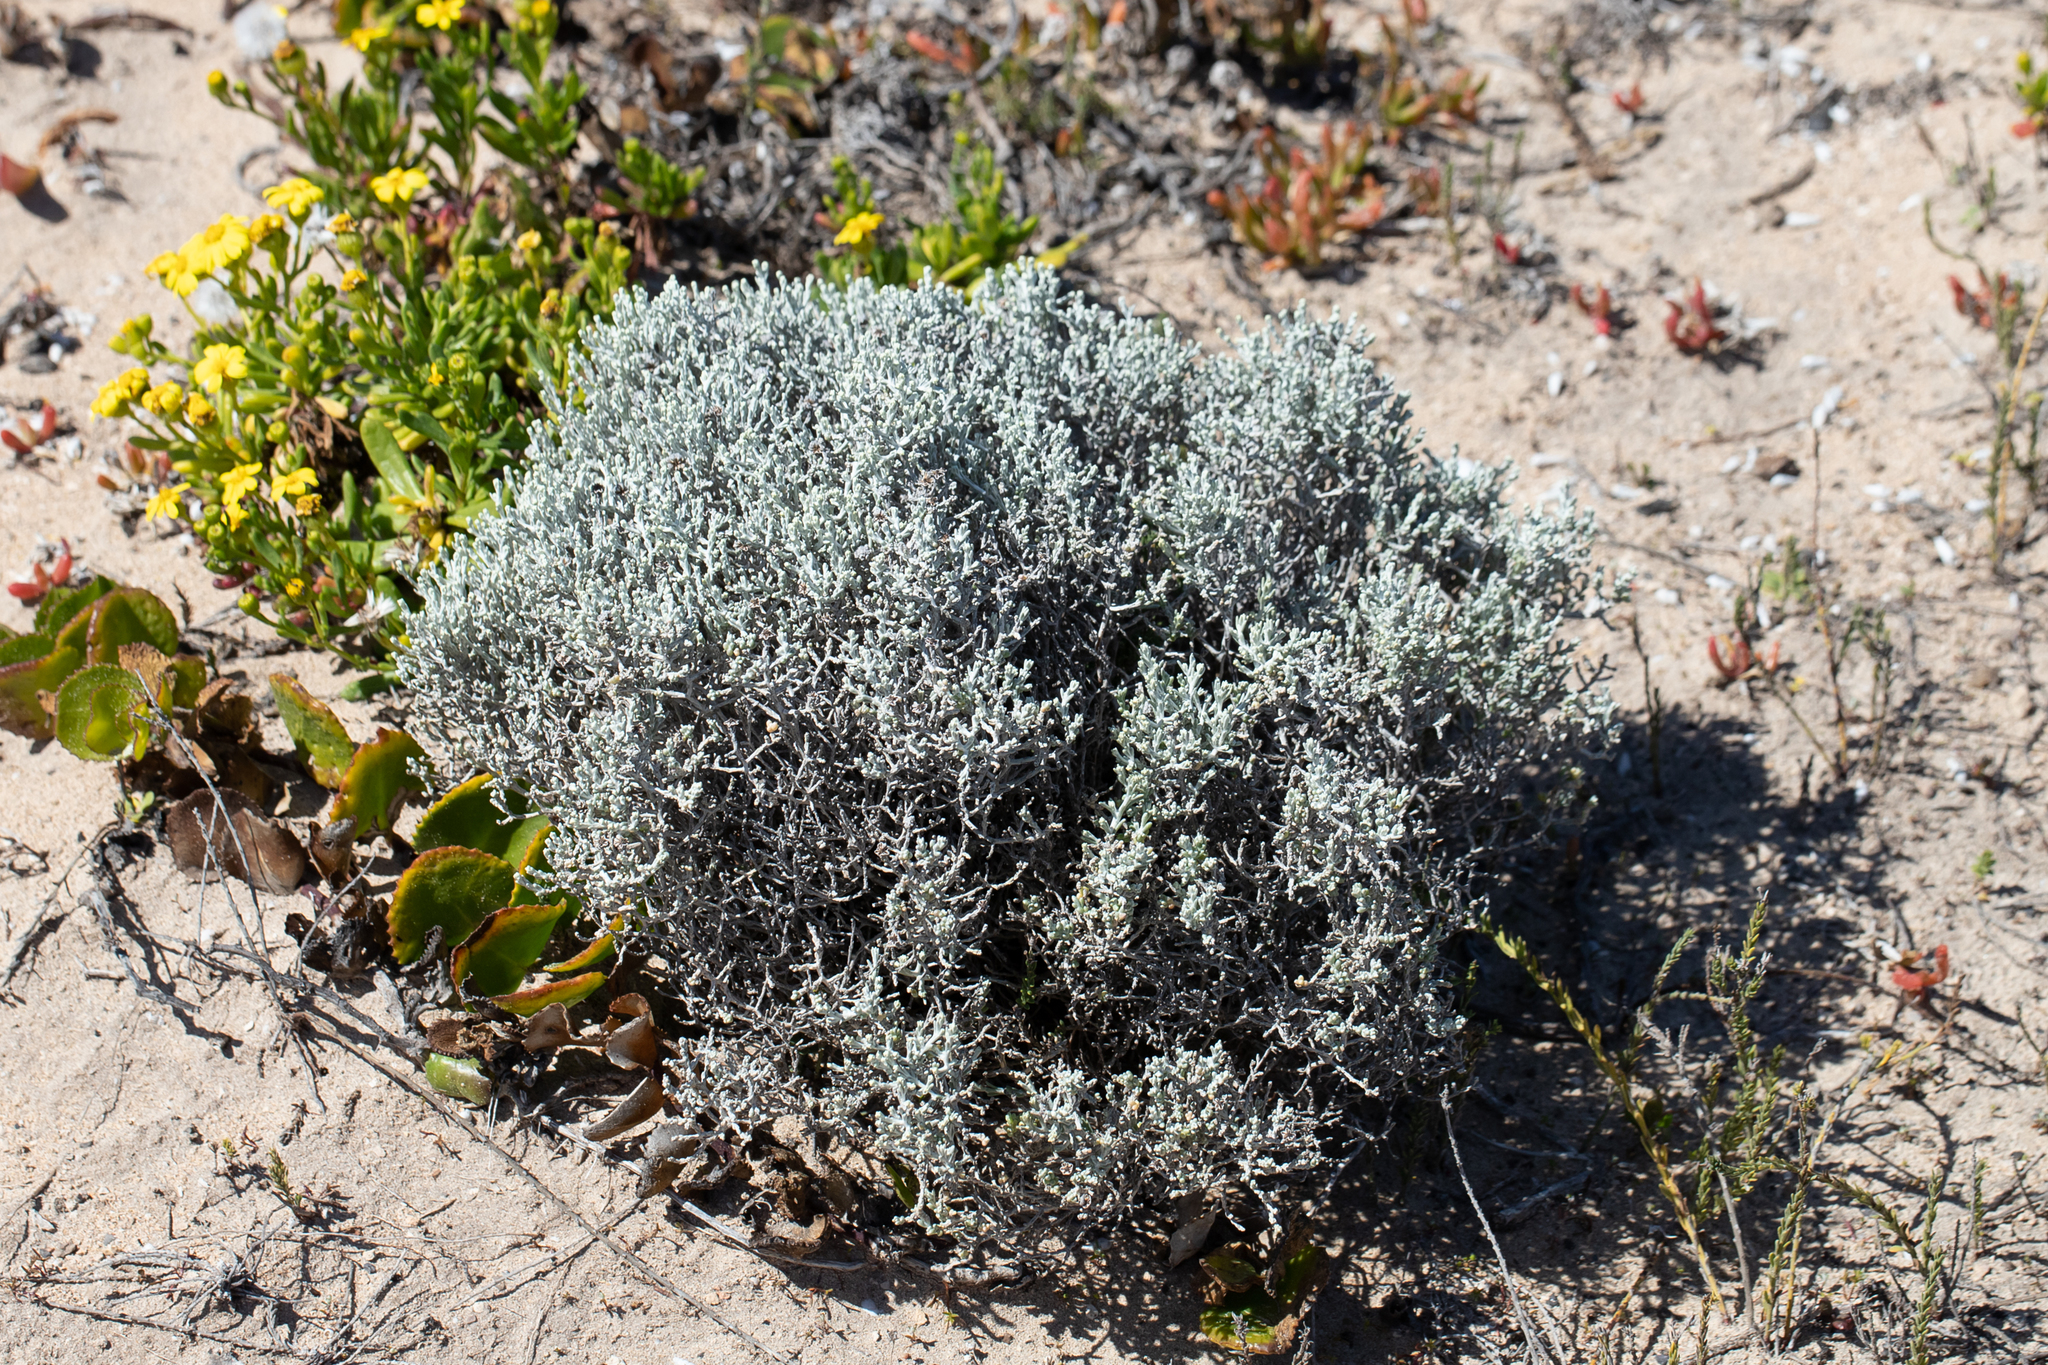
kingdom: Plantae
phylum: Tracheophyta
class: Magnoliopsida
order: Asterales
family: Asteraceae
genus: Calocephalus
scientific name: Calocephalus brownii
